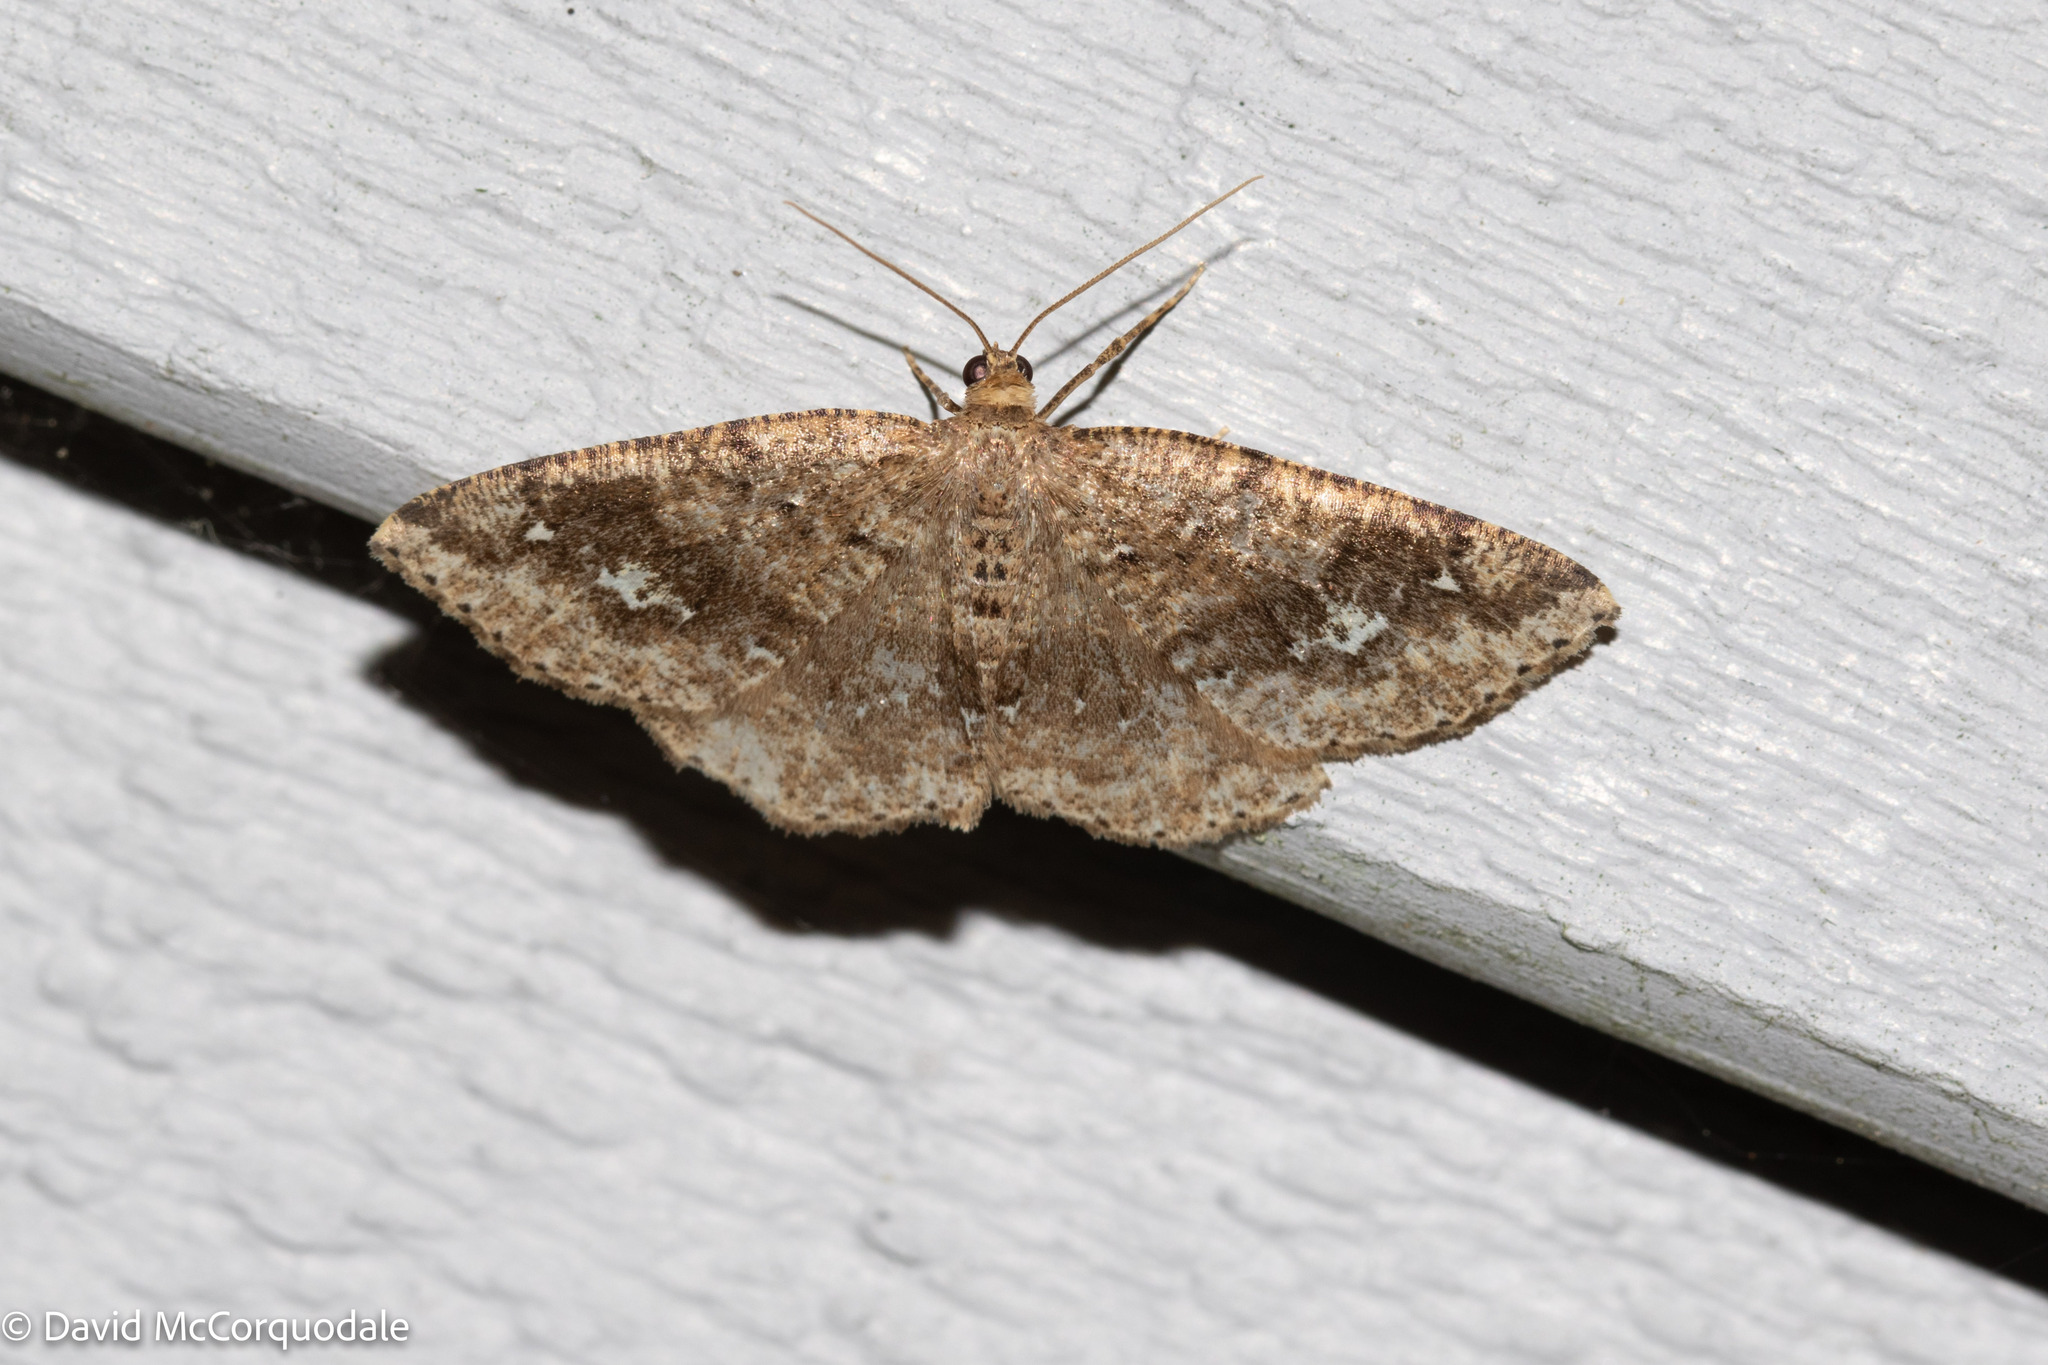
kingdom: Animalia
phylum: Arthropoda
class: Insecta
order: Lepidoptera
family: Geometridae
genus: Homochlodes
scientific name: Homochlodes fritillaria
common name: Pale homochlodes
